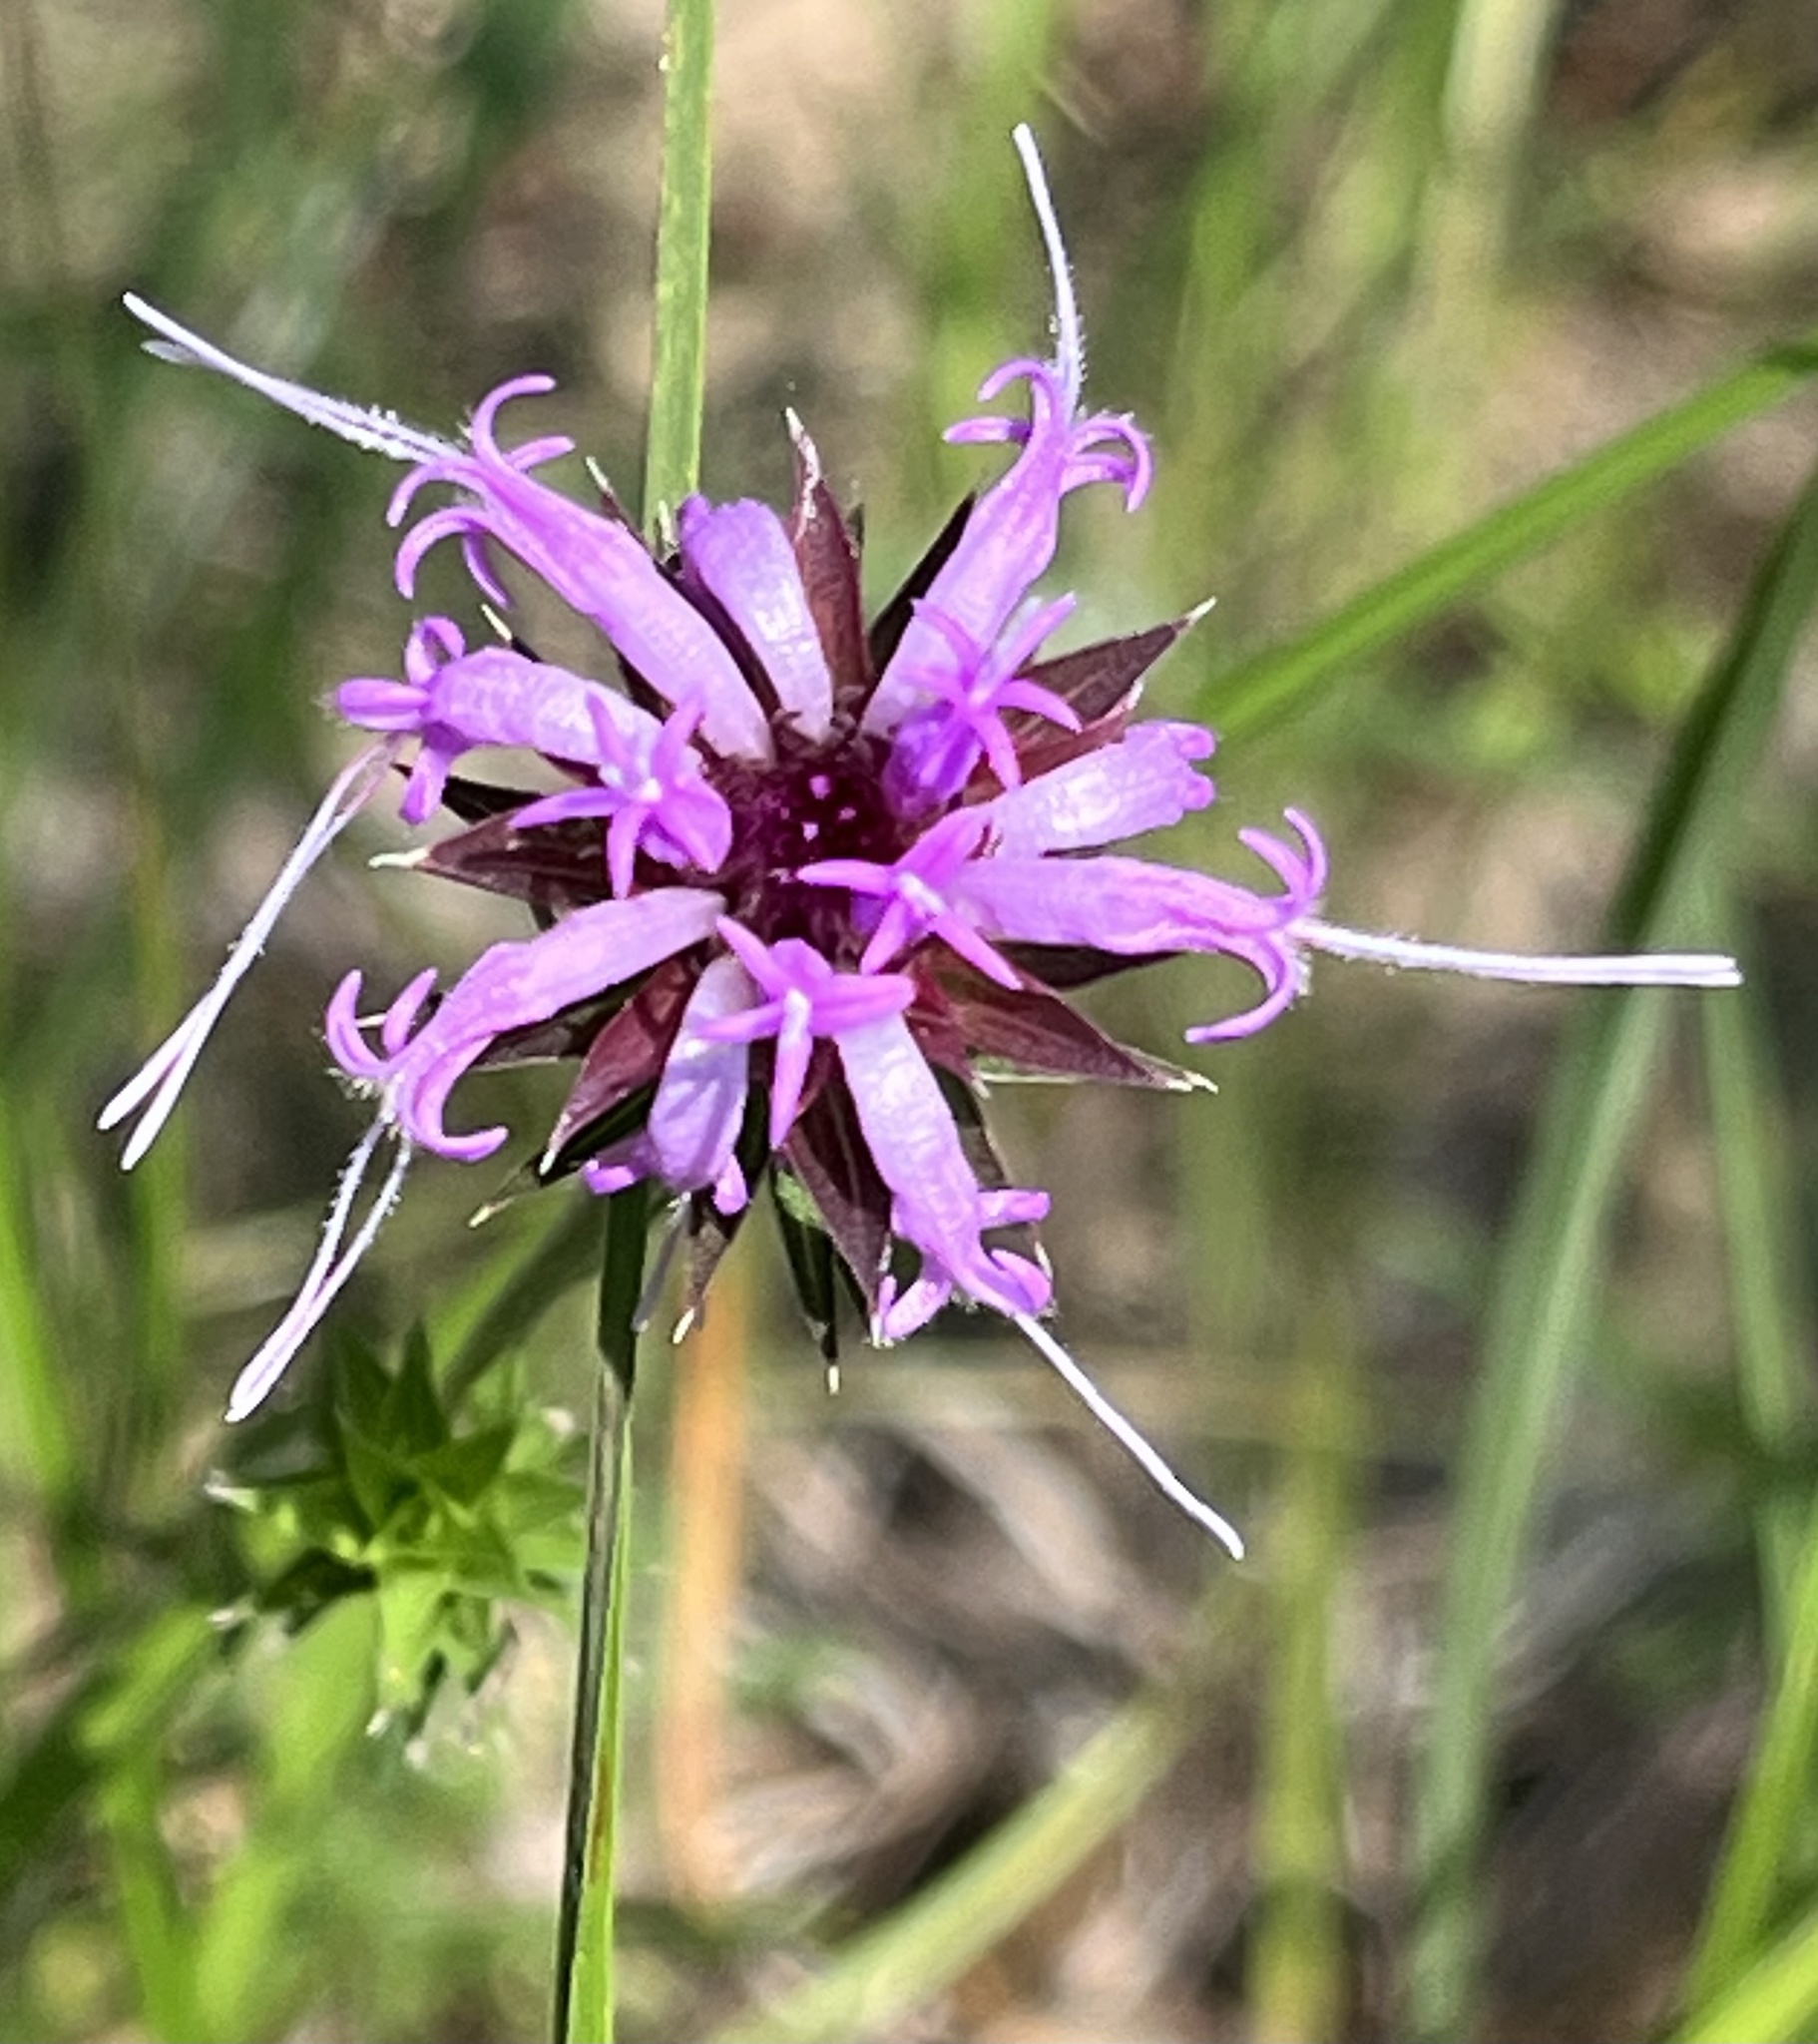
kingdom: Plantae
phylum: Tracheophyta
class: Magnoliopsida
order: Asterales
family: Asteraceae
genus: Liatris
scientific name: Liatris squarrosa
